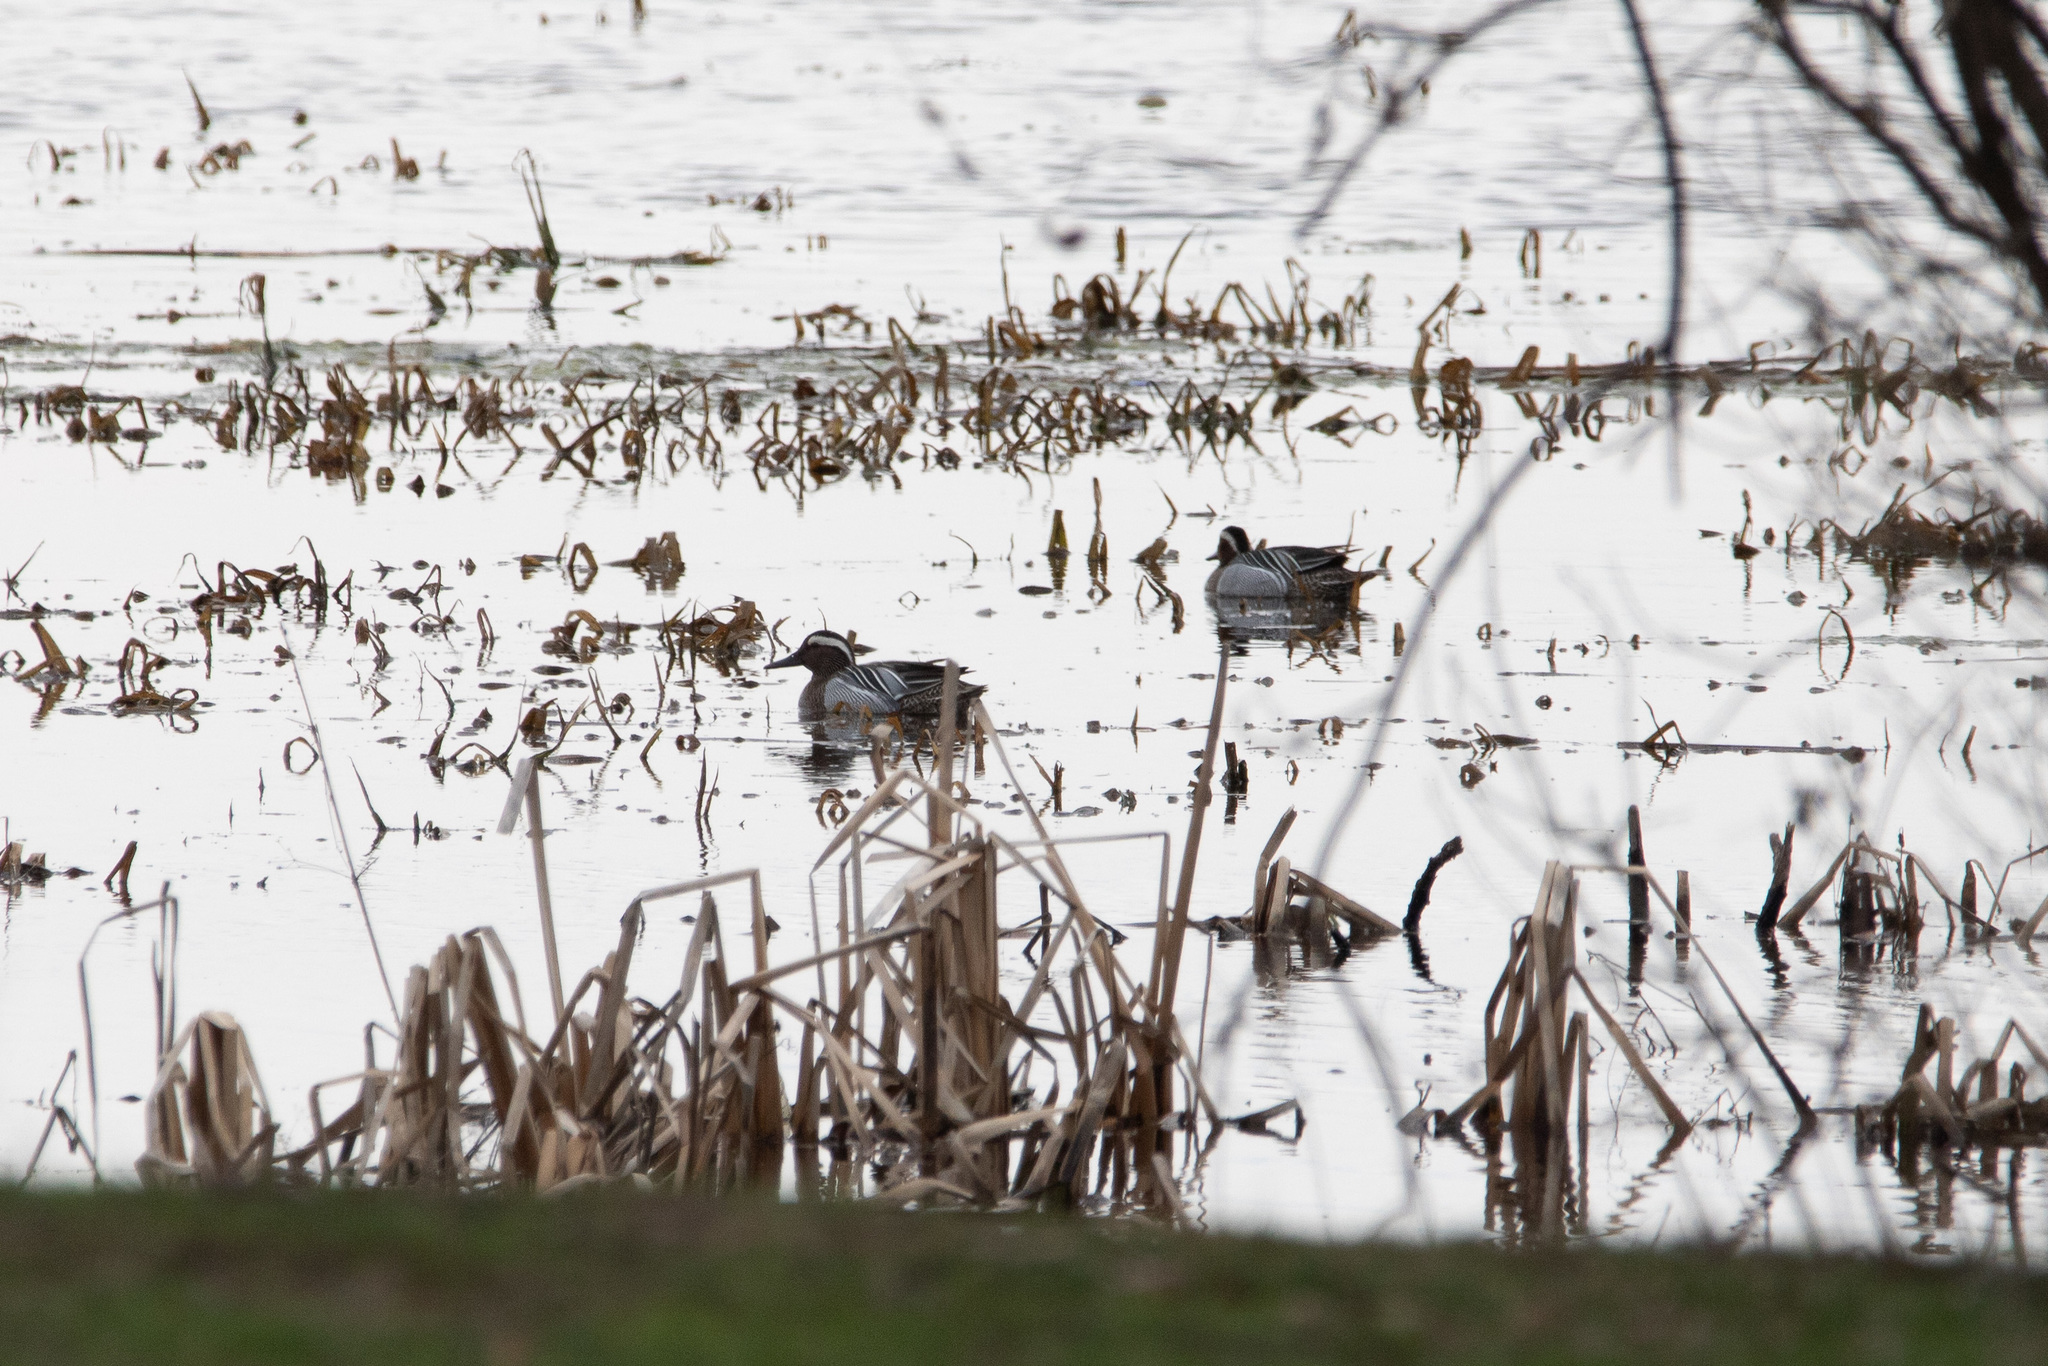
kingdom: Animalia
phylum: Chordata
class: Aves
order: Anseriformes
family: Anatidae
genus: Spatula
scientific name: Spatula querquedula
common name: Garganey
